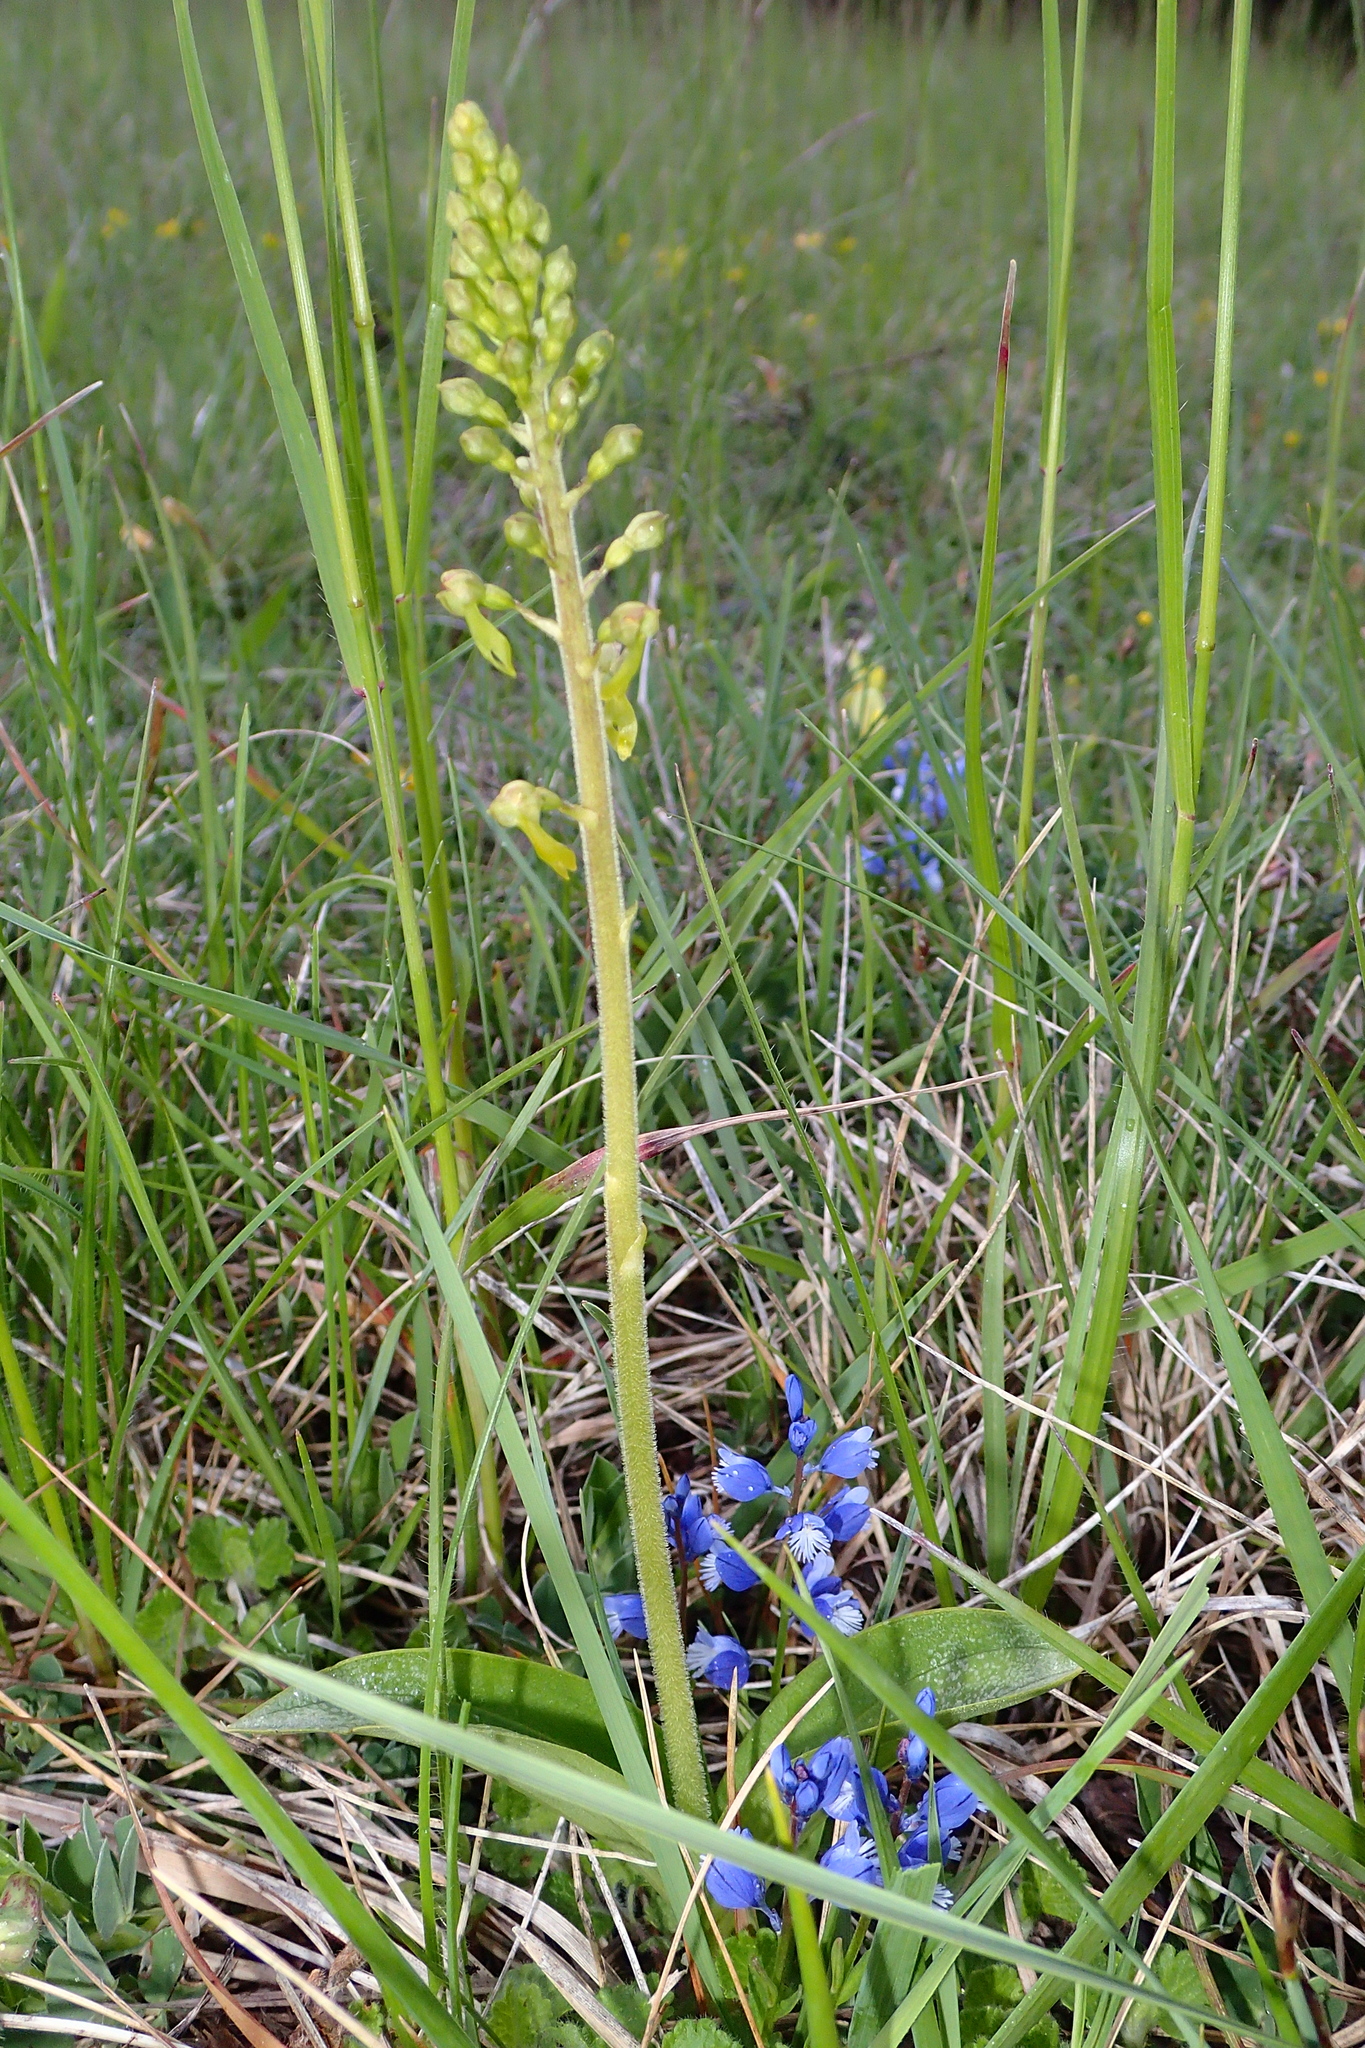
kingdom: Plantae
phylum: Tracheophyta
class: Liliopsida
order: Asparagales
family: Orchidaceae
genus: Neottia
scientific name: Neottia ovata
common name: Common twayblade
